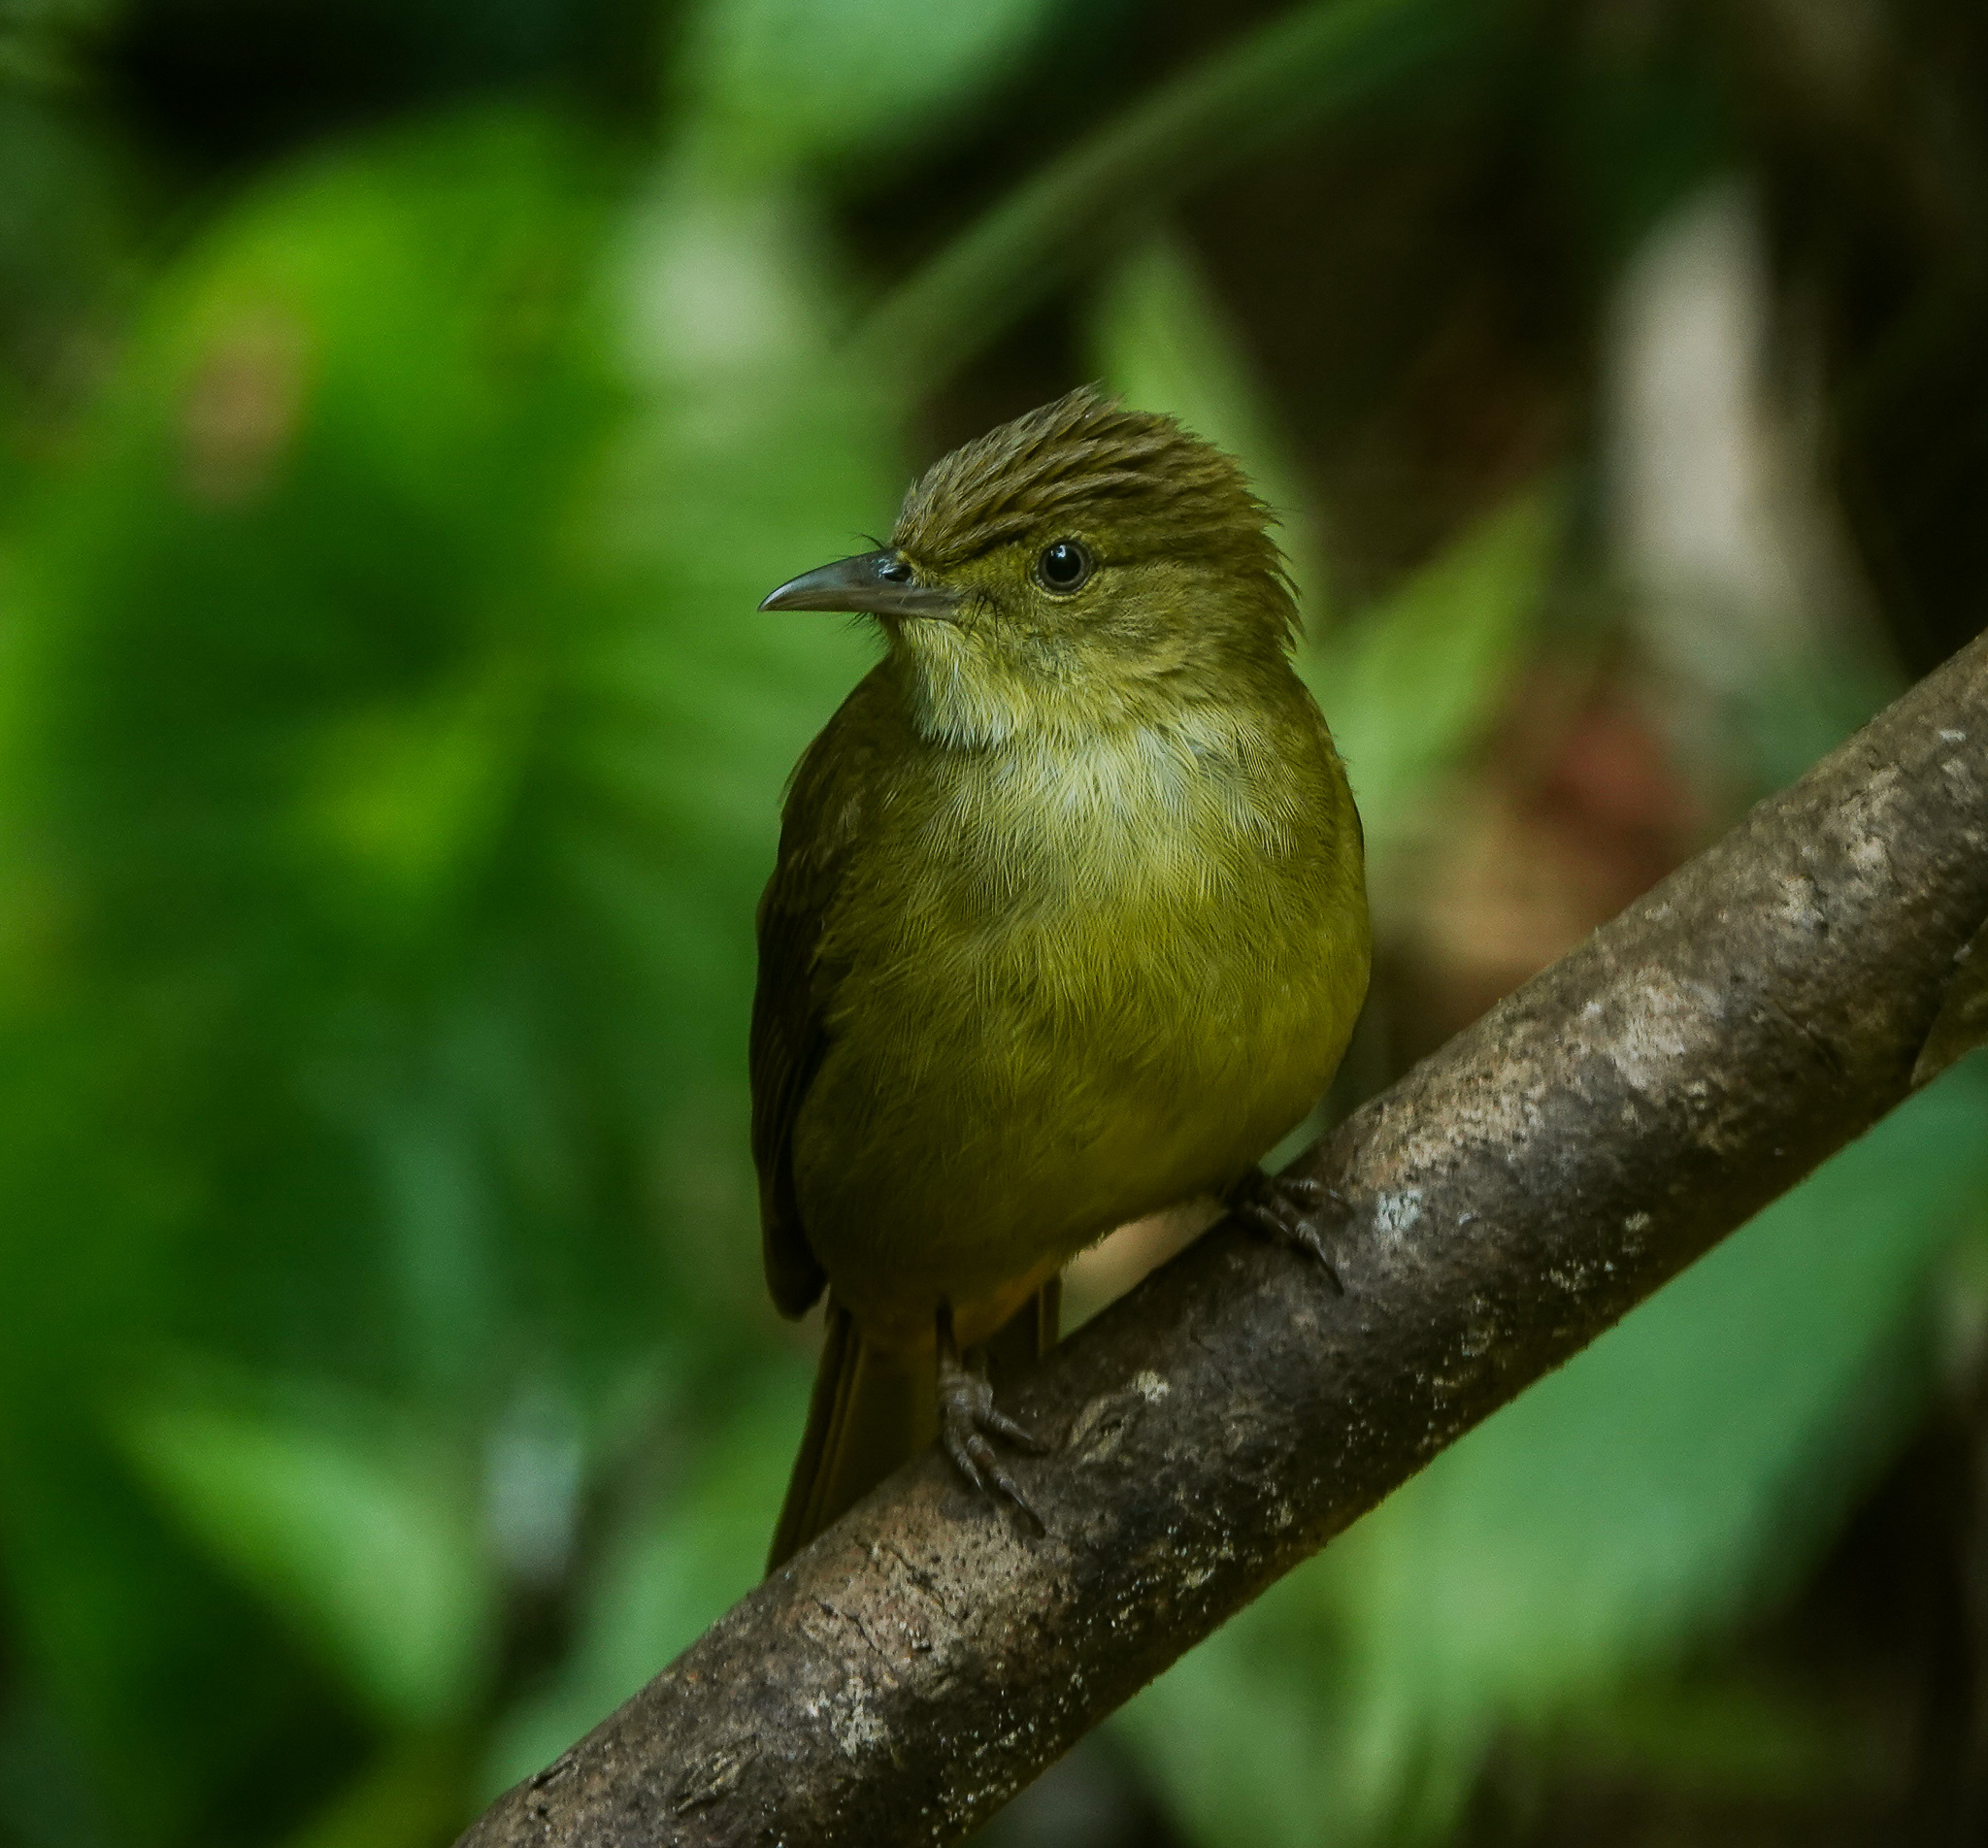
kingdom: Animalia
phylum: Chordata
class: Aves
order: Passeriformes
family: Pycnonotidae
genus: Iole
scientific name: Iole virescens
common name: Olive bulbul
